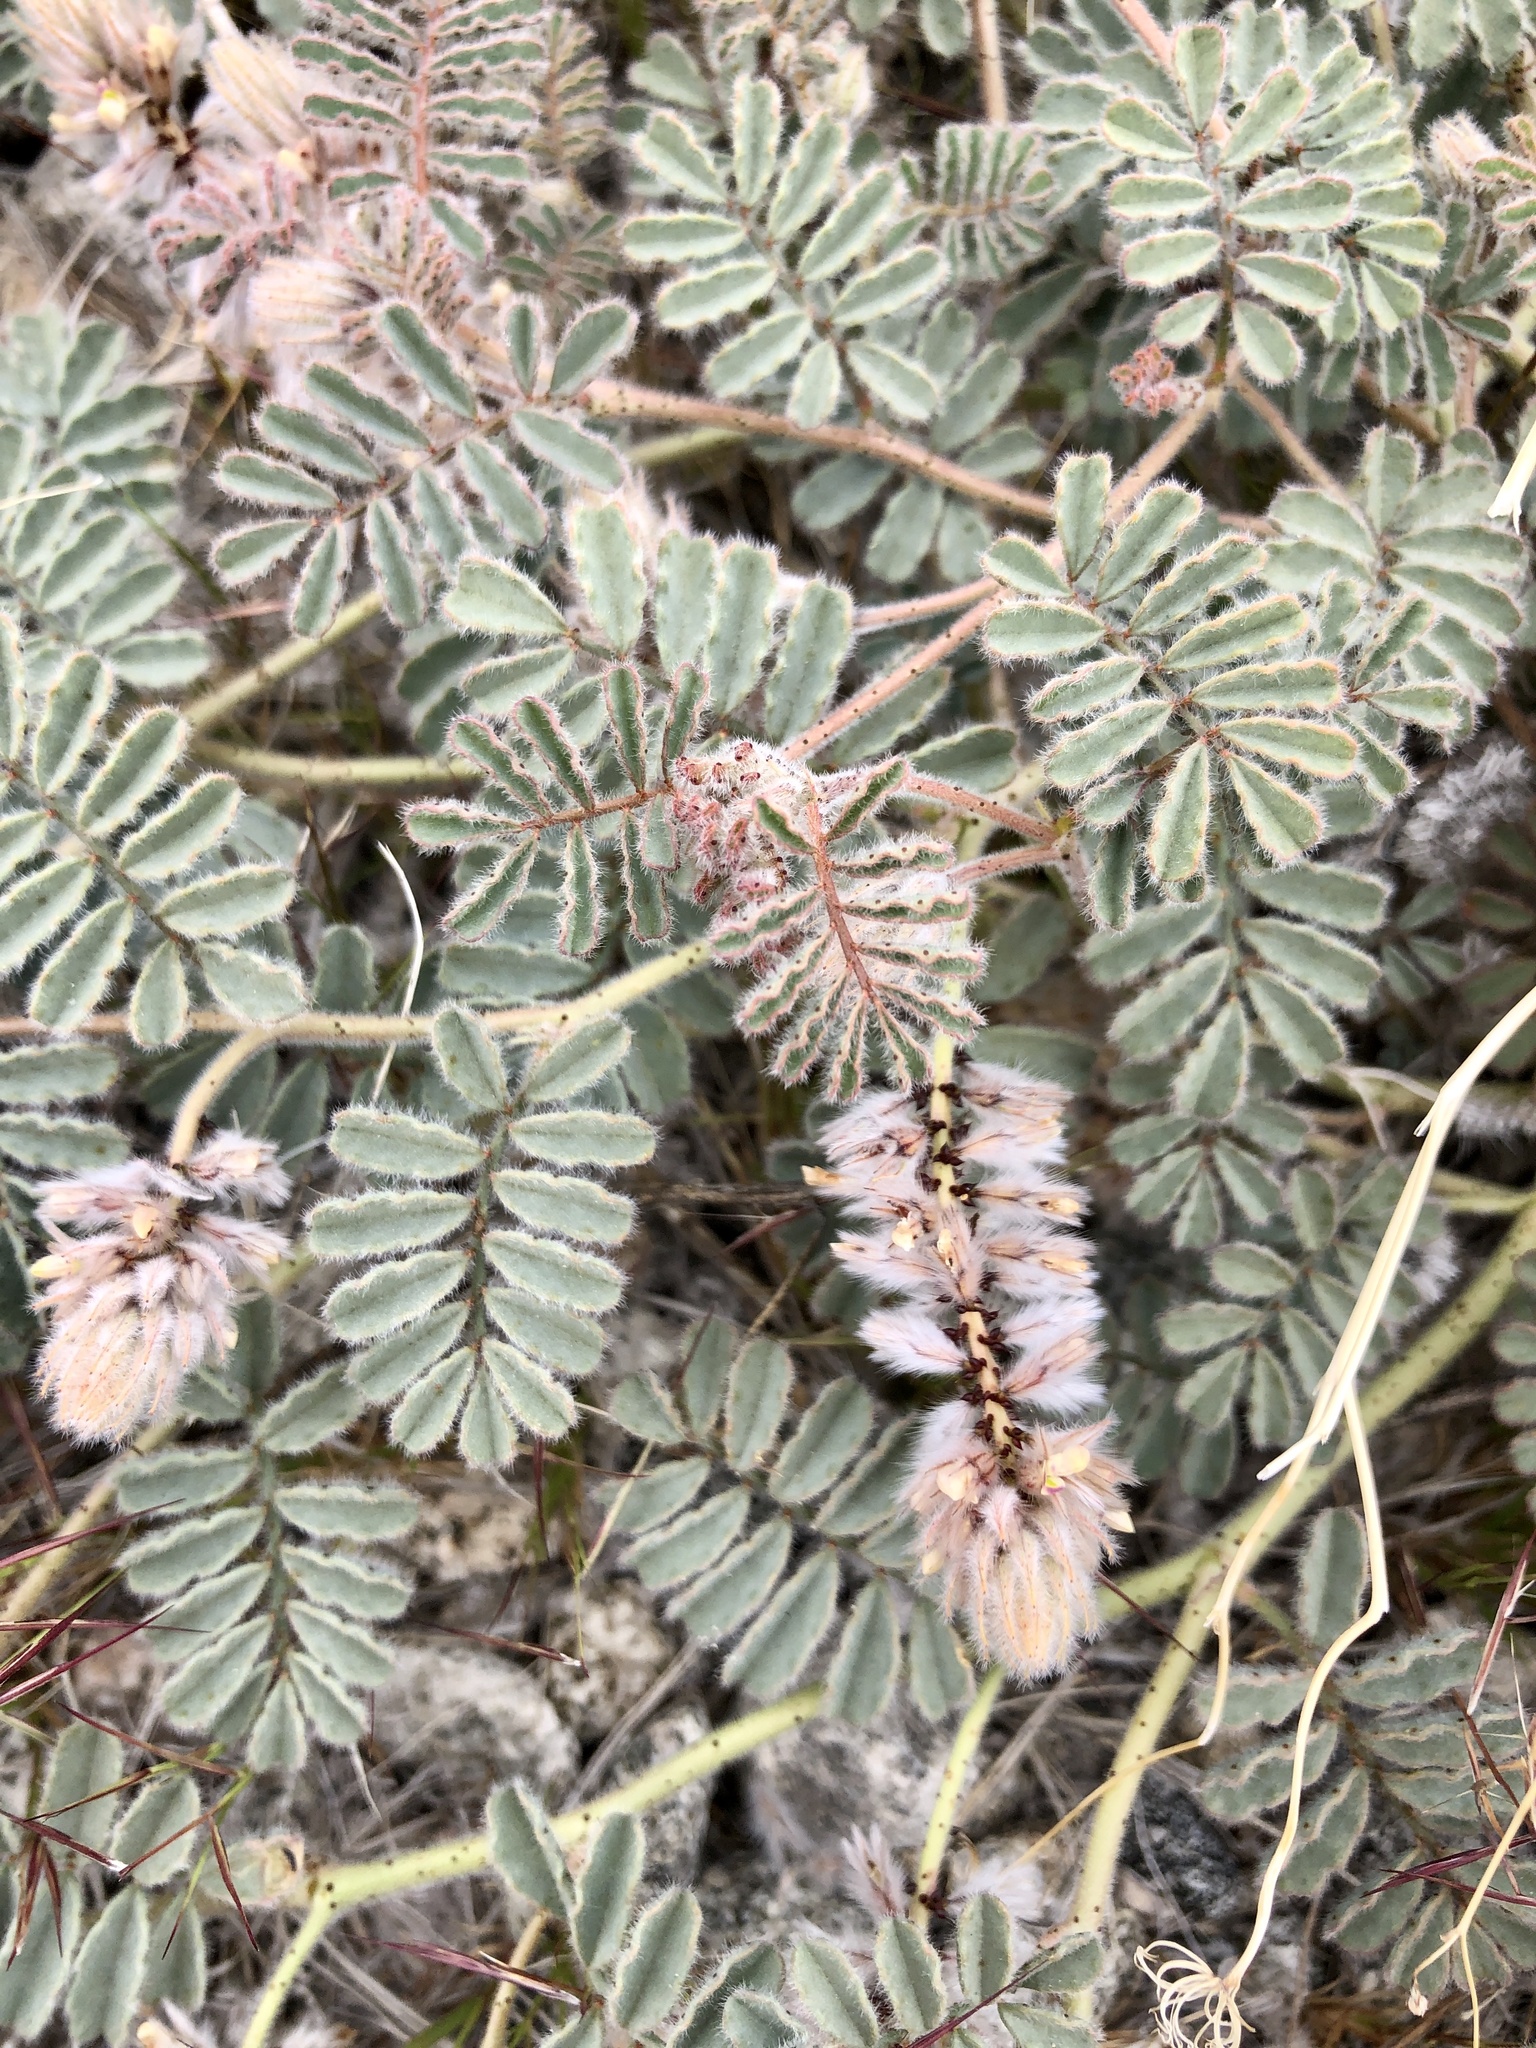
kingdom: Plantae
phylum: Tracheophyta
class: Magnoliopsida
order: Fabales
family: Fabaceae
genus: Dalea
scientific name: Dalea mollissima
